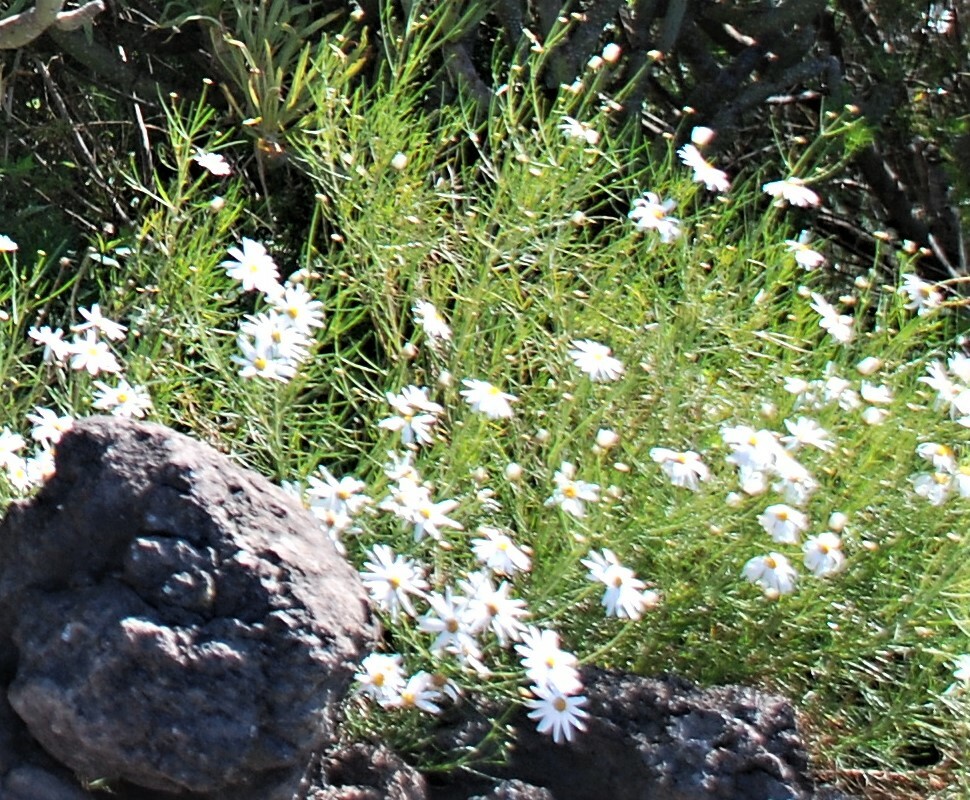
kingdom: Plantae
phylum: Tracheophyta
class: Magnoliopsida
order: Asterales
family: Asteraceae
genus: Argyranthemum
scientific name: Argyranthemum gracile
